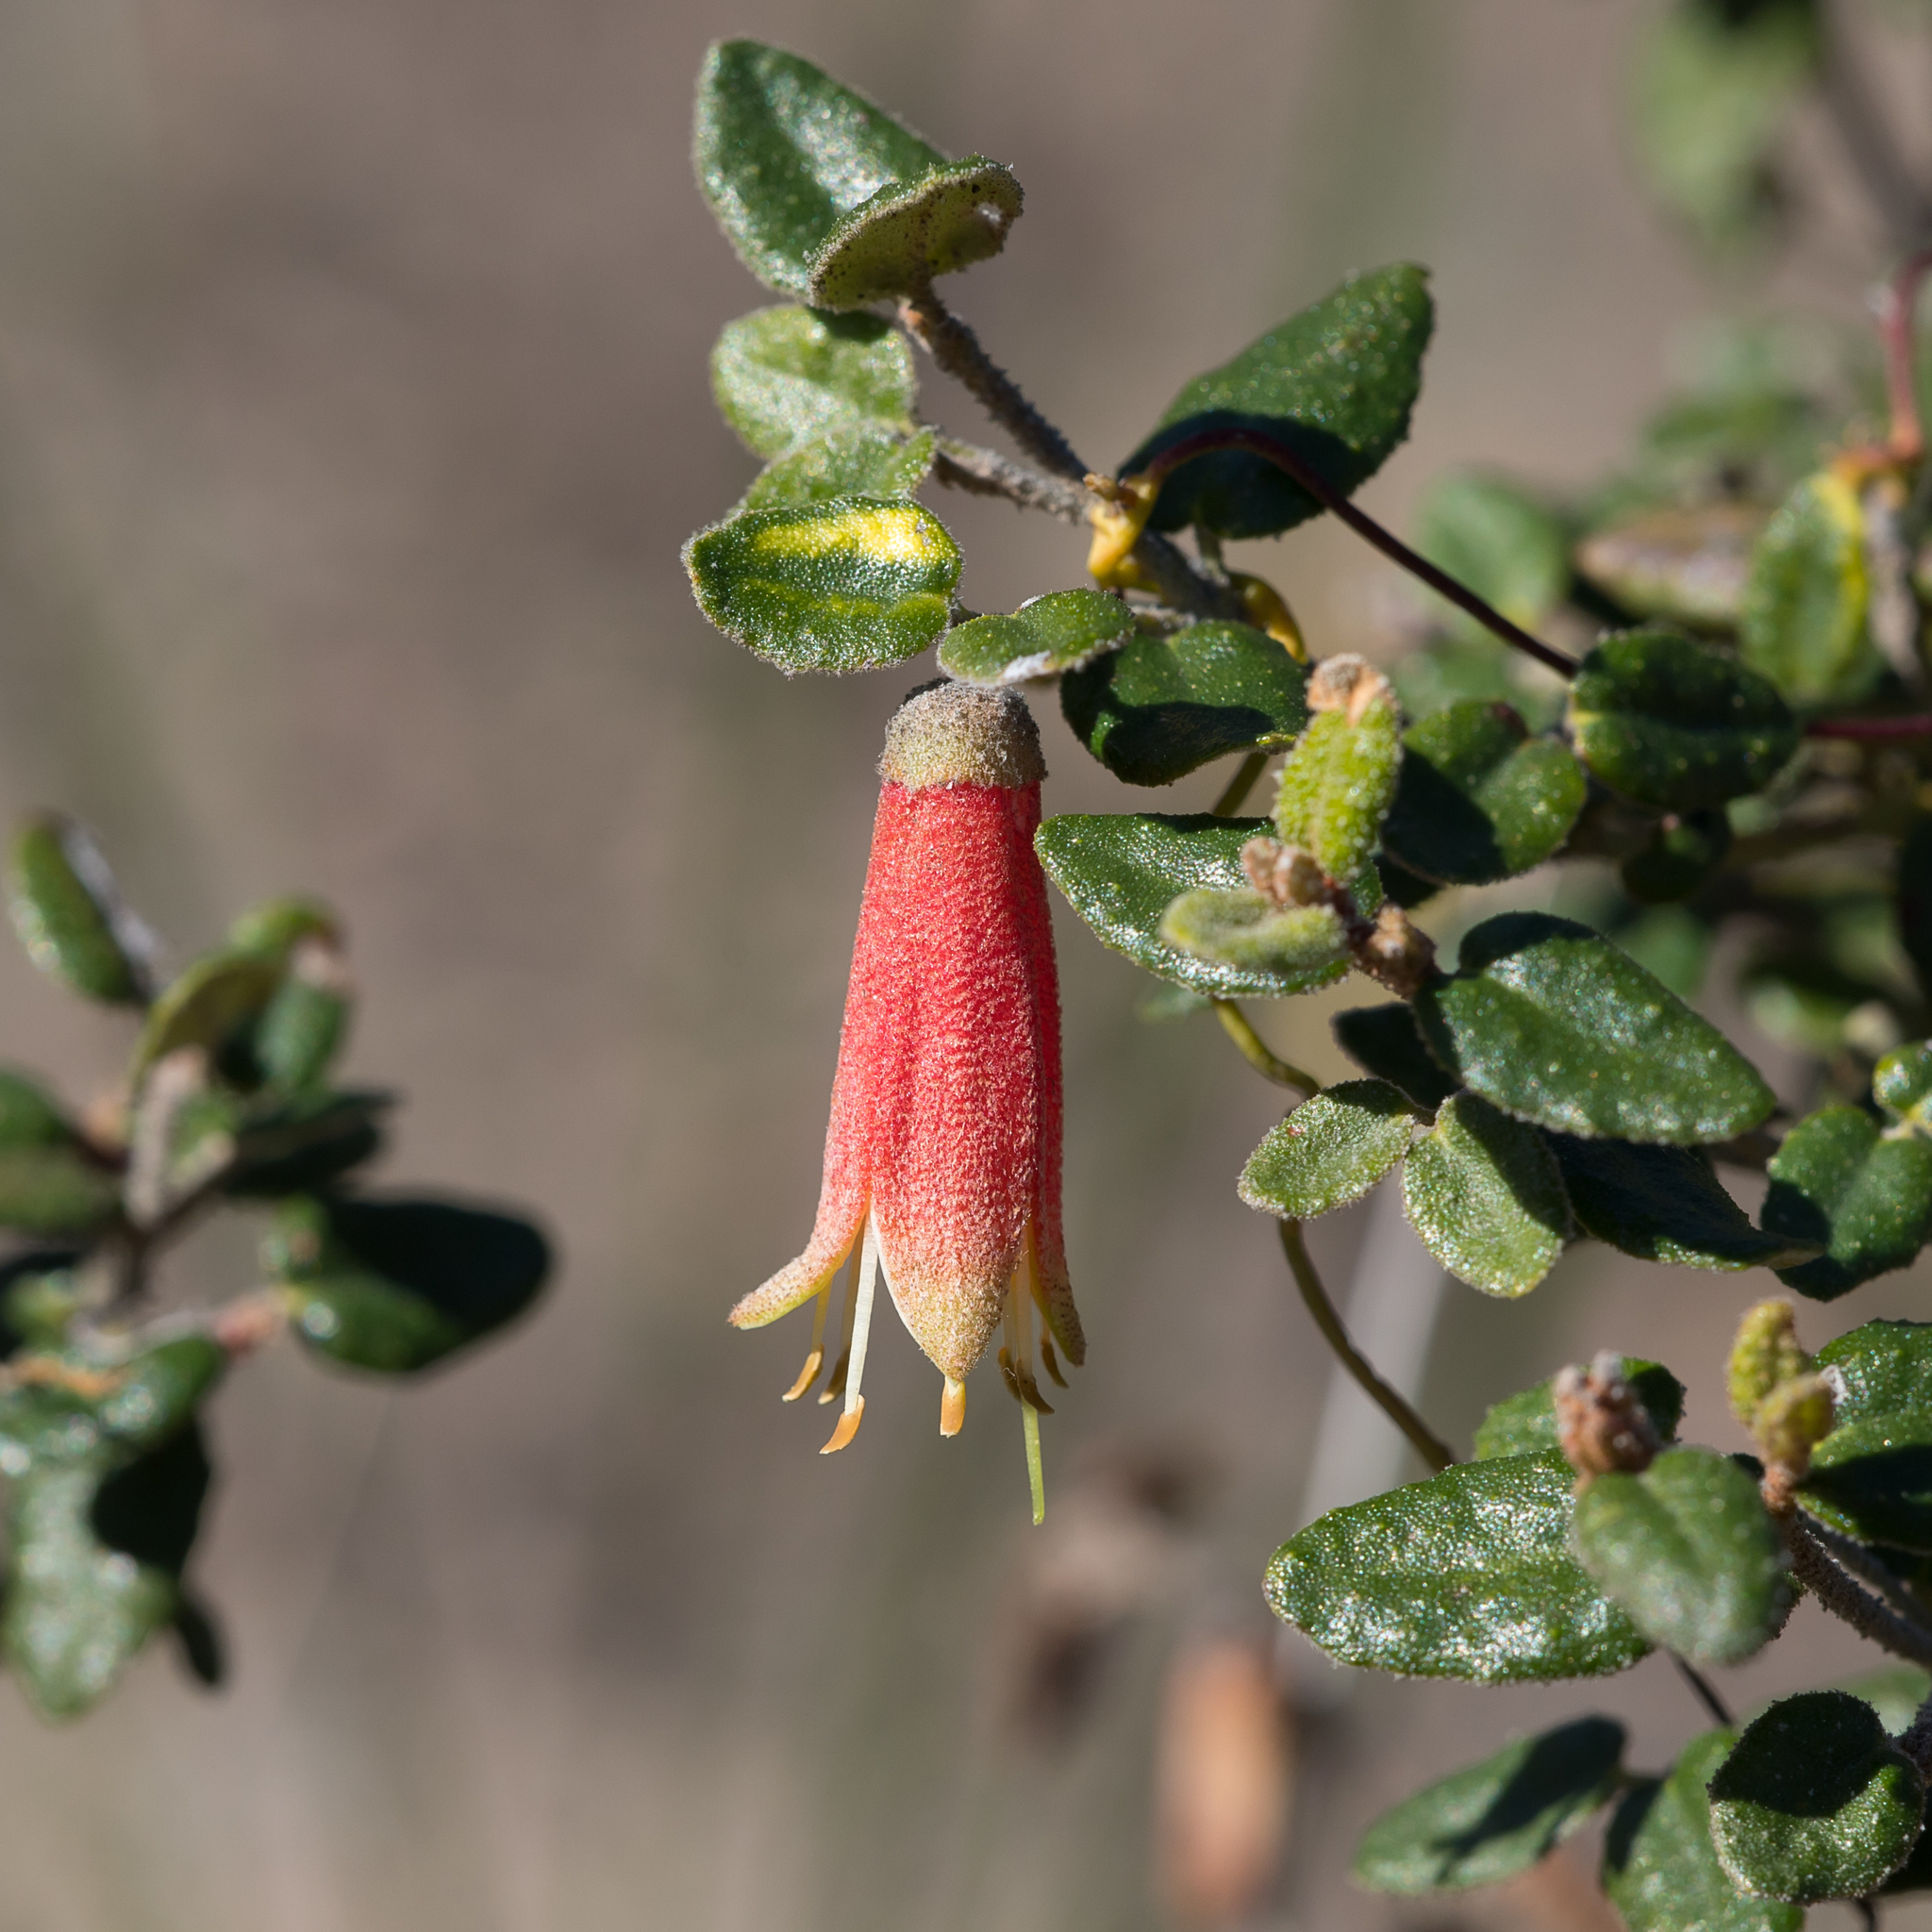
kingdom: Plantae
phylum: Tracheophyta
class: Magnoliopsida
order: Sapindales
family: Rutaceae
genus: Correa
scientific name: Correa reflexa
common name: Common correa
